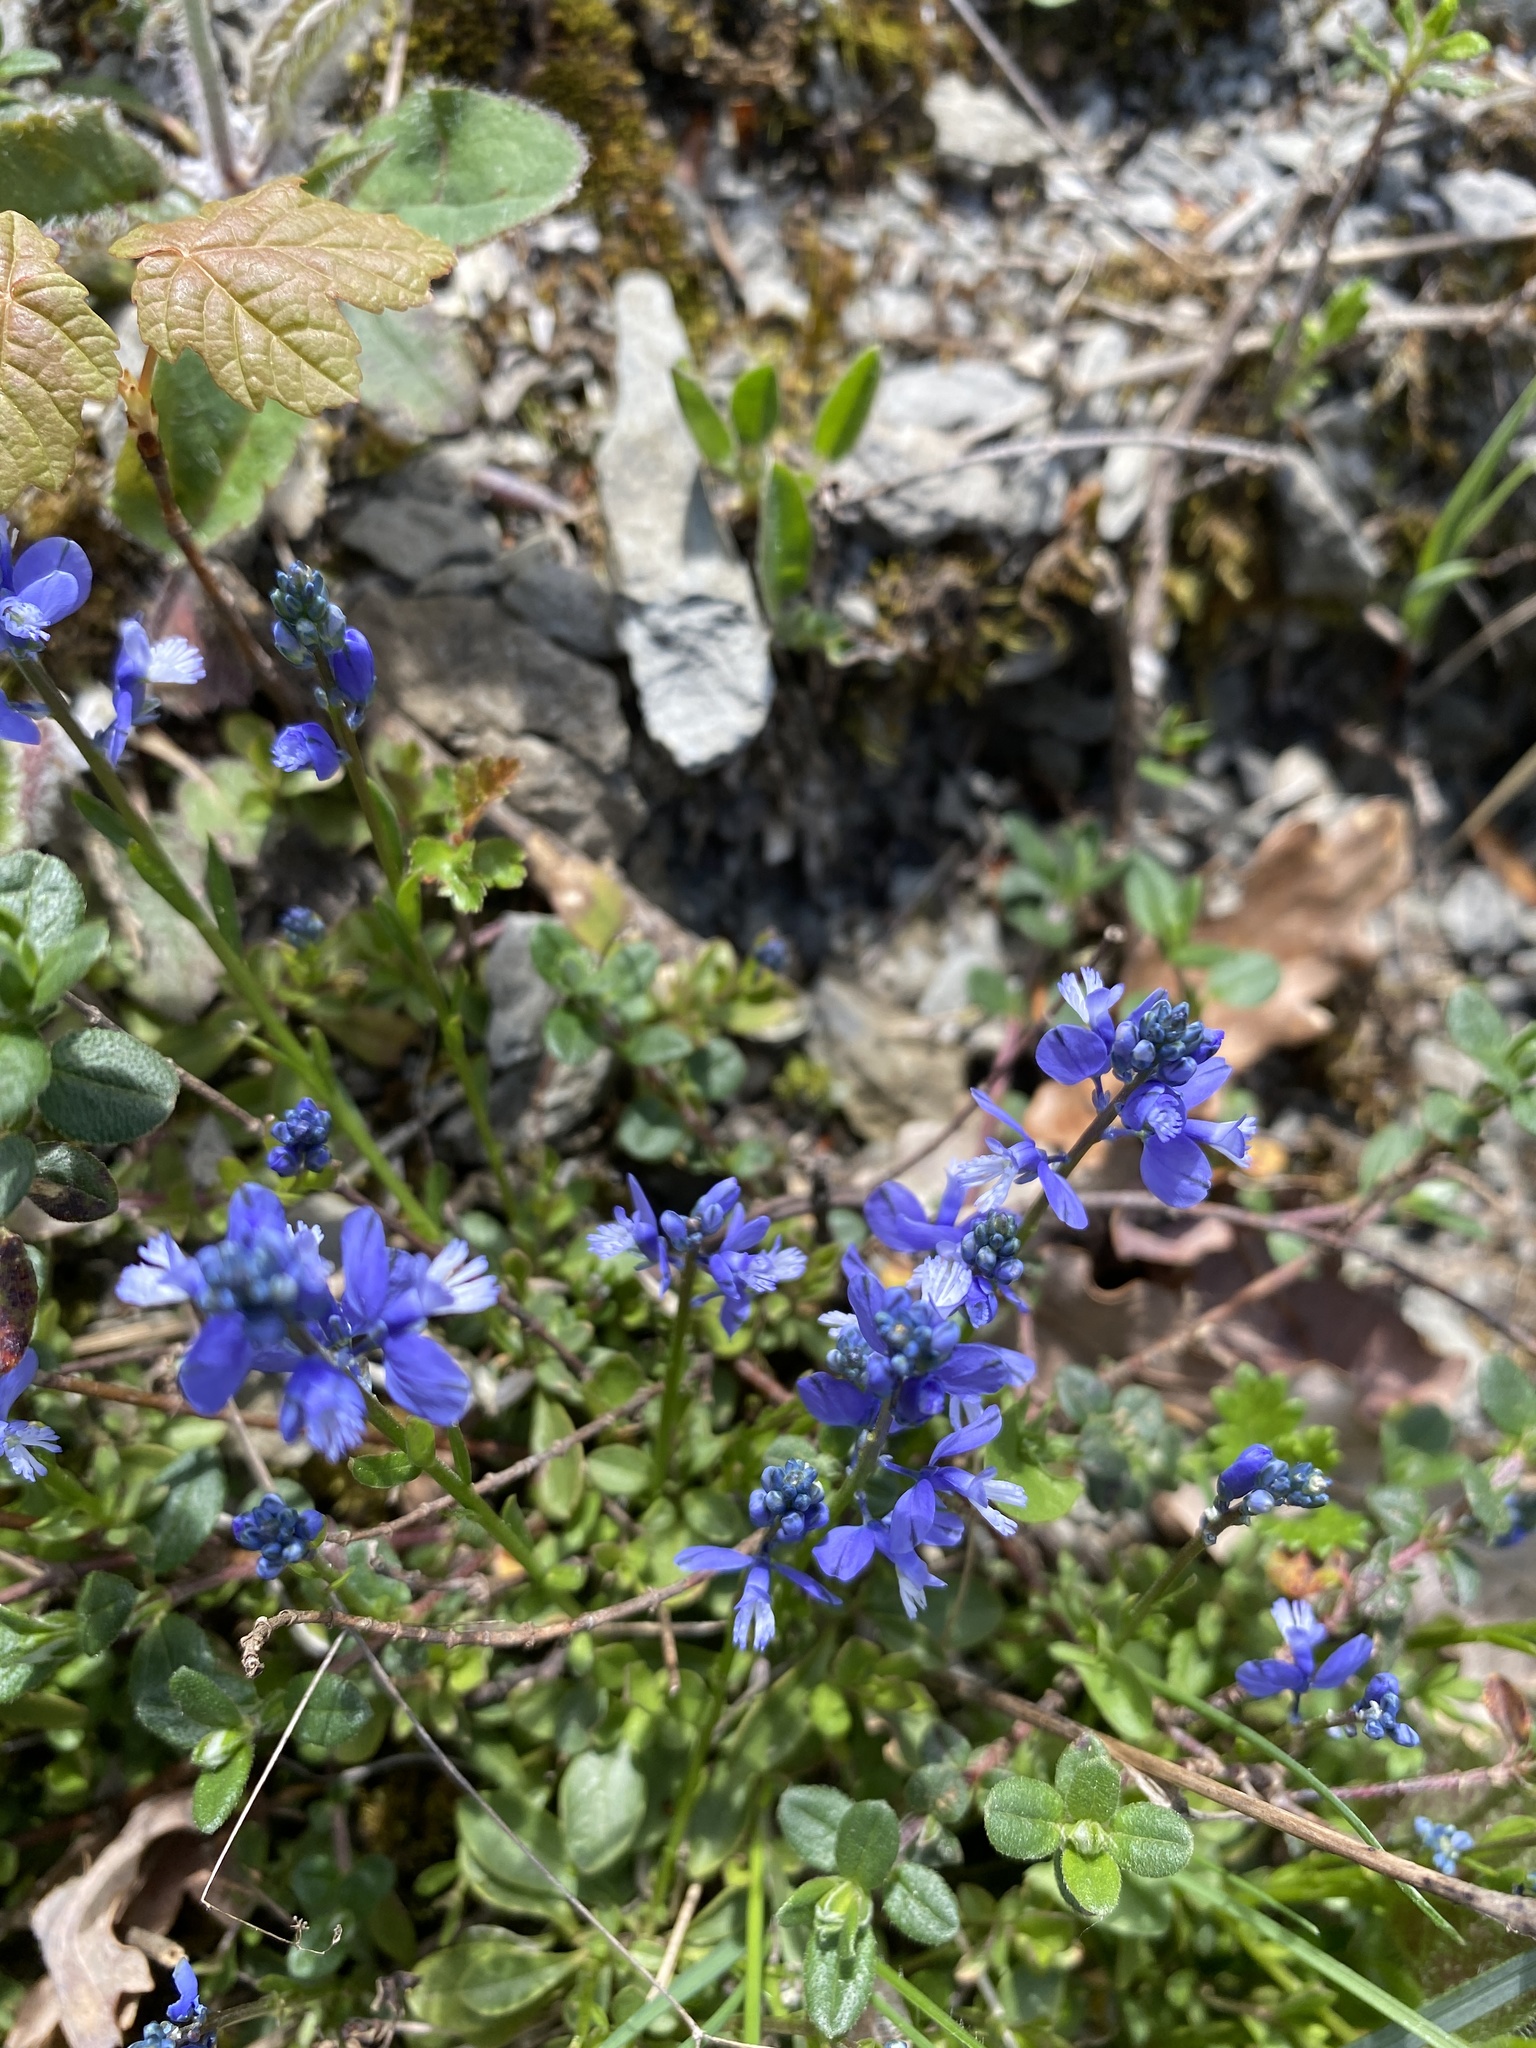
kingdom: Plantae
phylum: Tracheophyta
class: Magnoliopsida
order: Fabales
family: Polygalaceae
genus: Polygala
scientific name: Polygala calcarea
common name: Chalk milkwort
